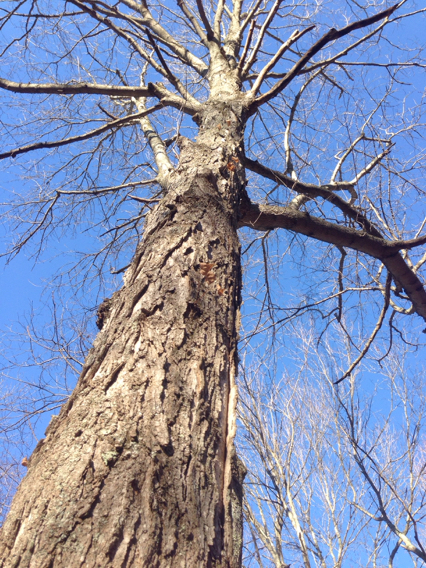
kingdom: Plantae
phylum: Tracheophyta
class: Magnoliopsida
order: Sapindales
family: Sapindaceae
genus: Acer
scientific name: Acer saccharum
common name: Sugar maple
